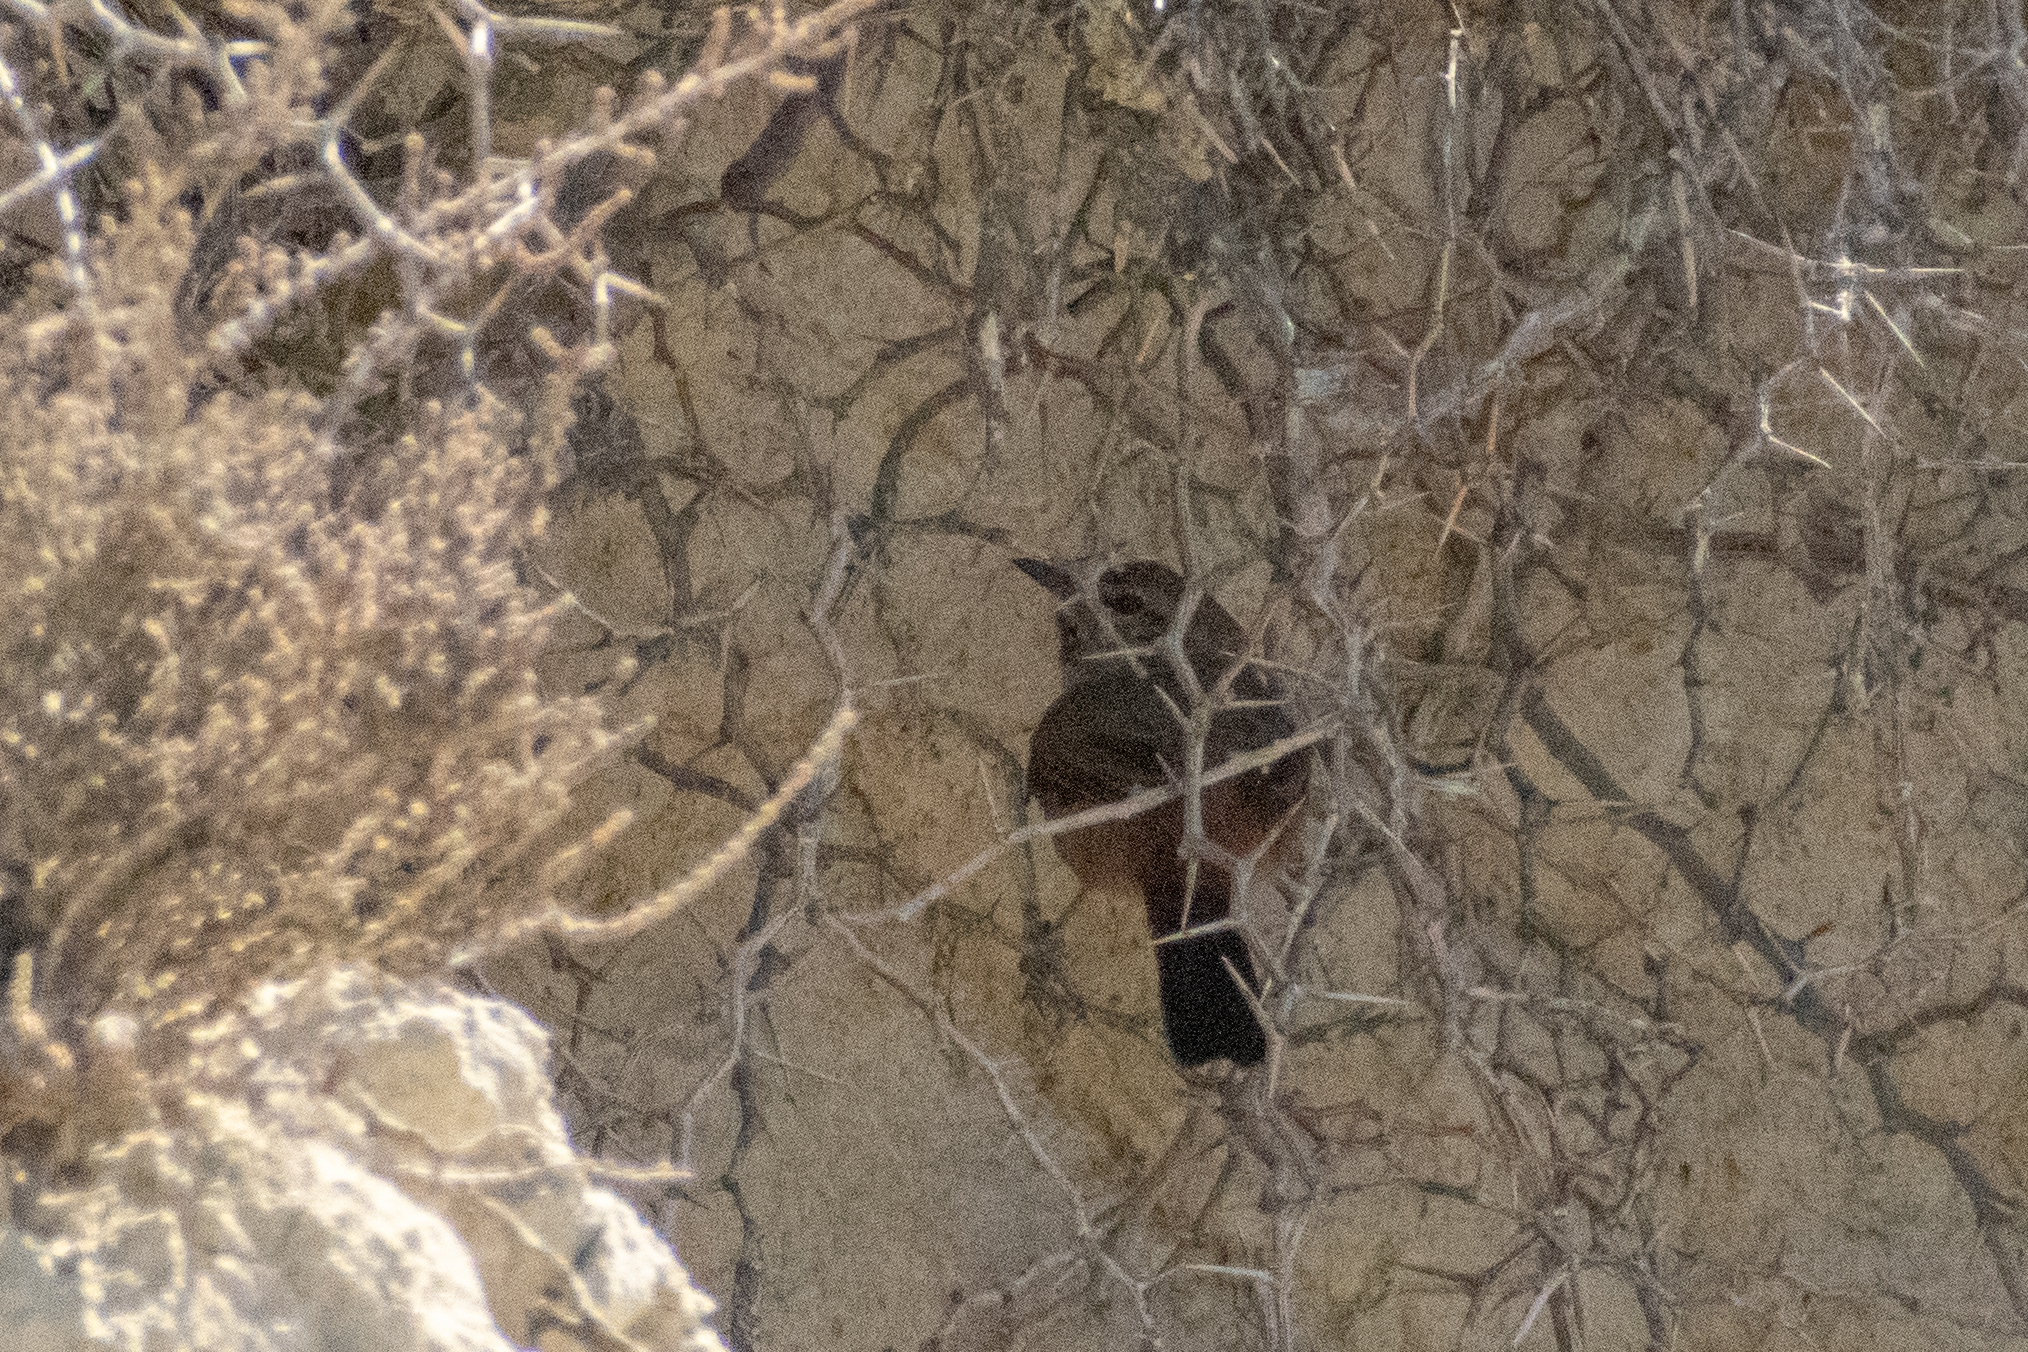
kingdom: Animalia
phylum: Chordata
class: Aves
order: Passeriformes
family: Furnariidae
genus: Asthenes
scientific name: Asthenes steinbachi
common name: Steinbach's canastero
